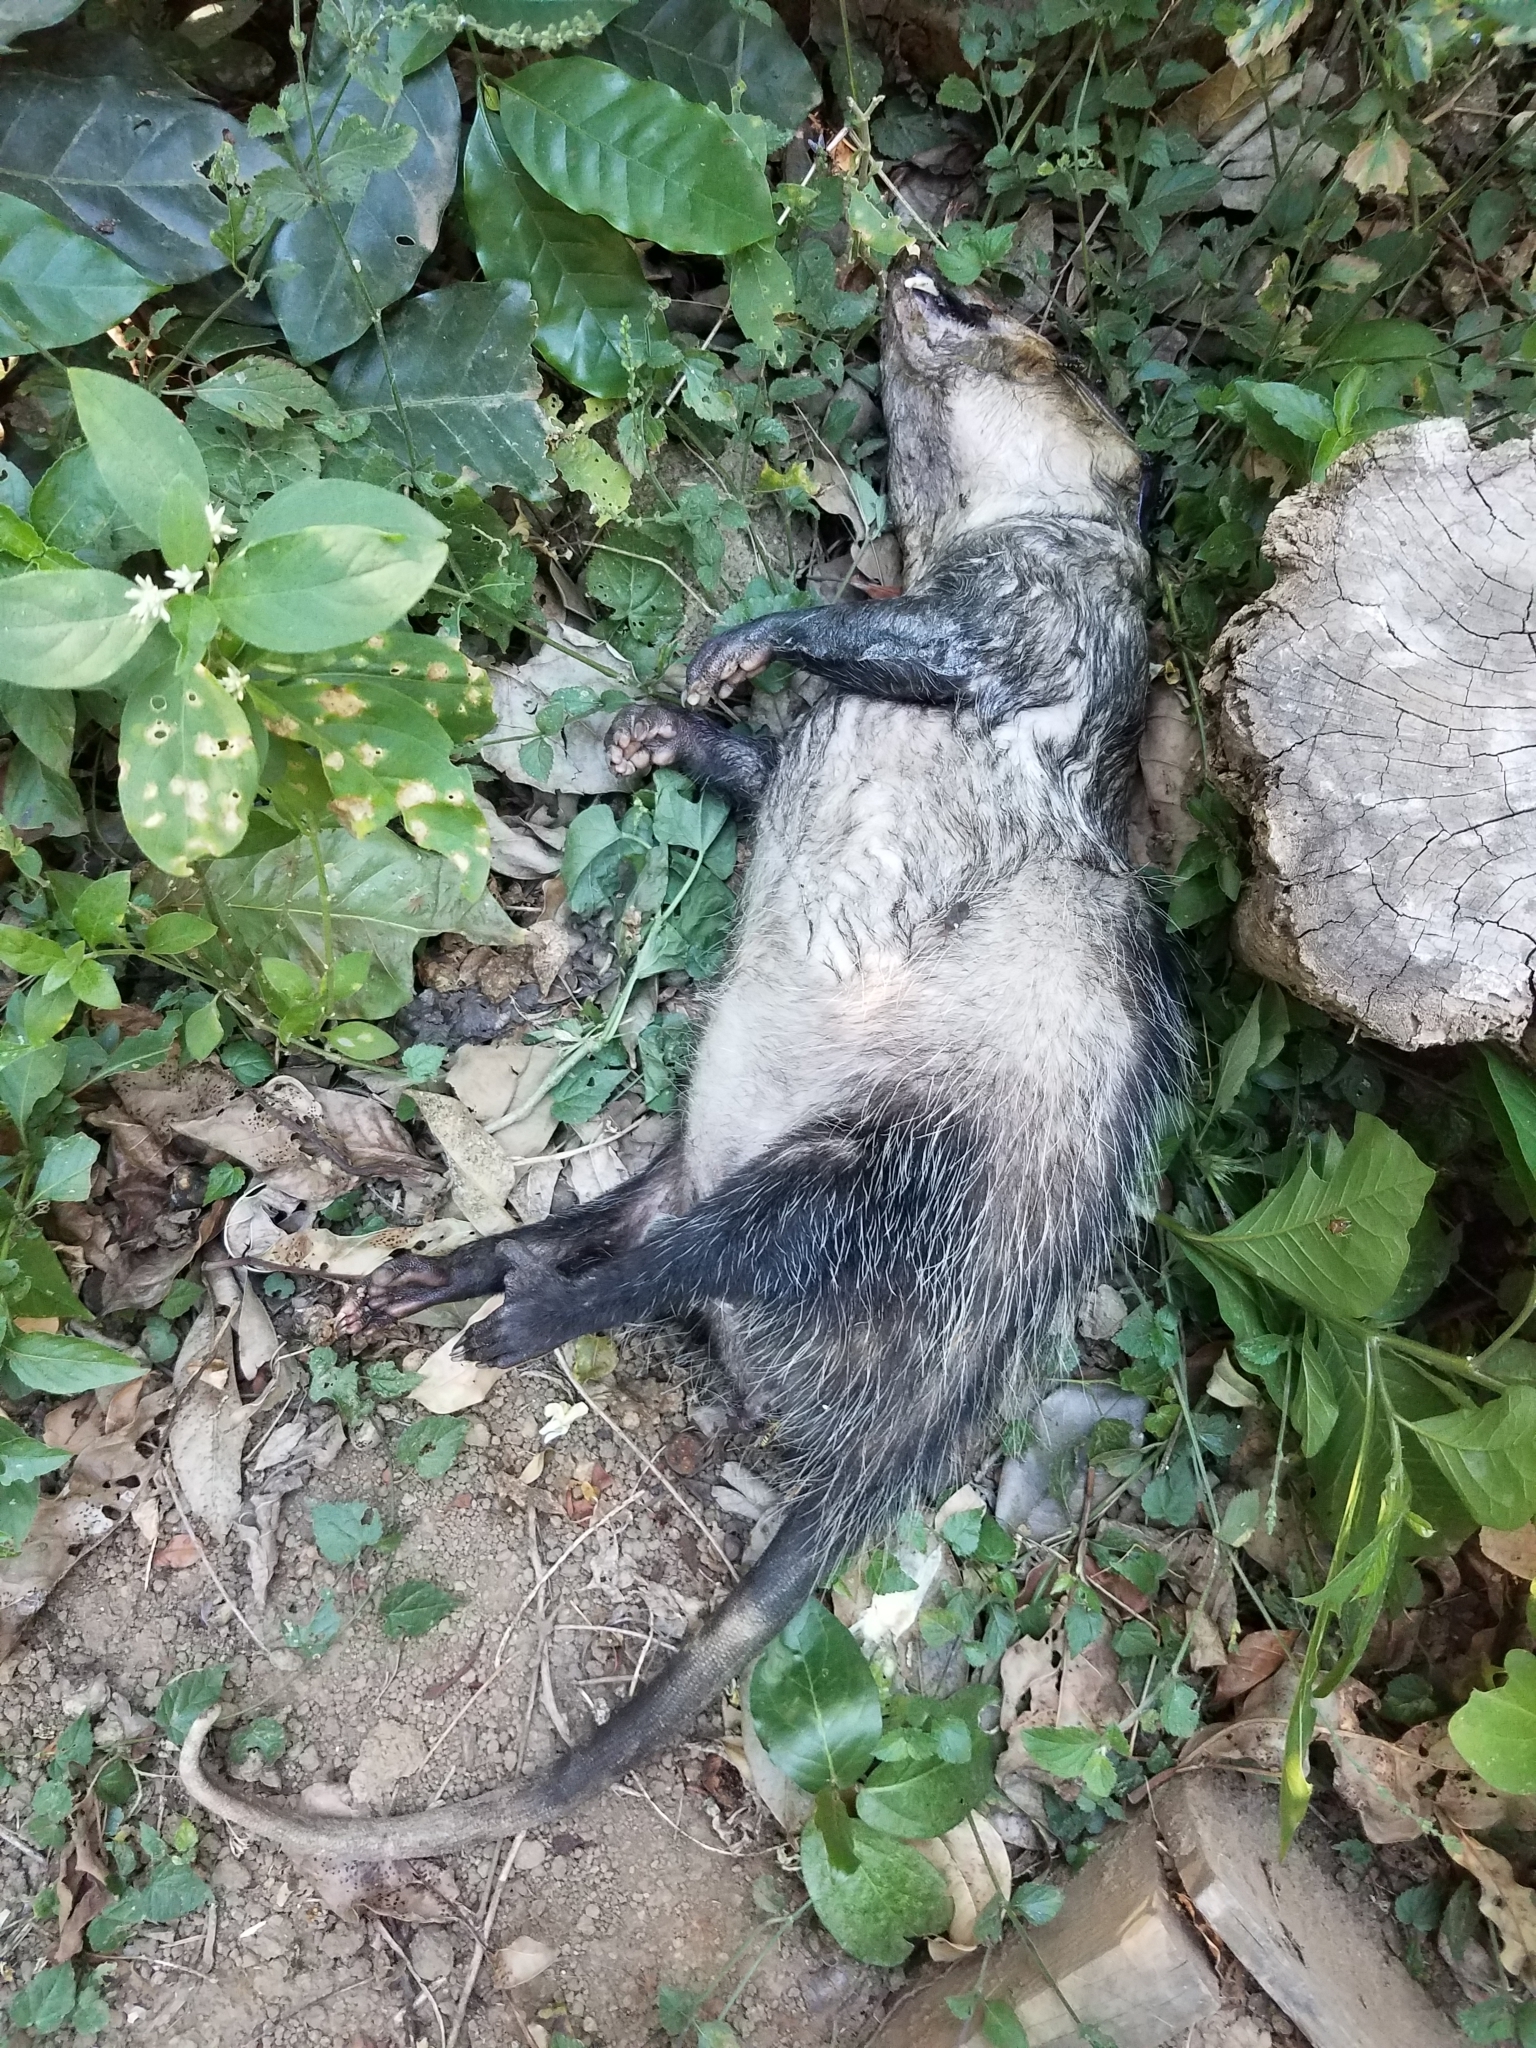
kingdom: Animalia
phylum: Chordata
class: Mammalia
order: Didelphimorphia
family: Didelphidae
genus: Didelphis
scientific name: Didelphis marsupialis
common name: Common opossum
